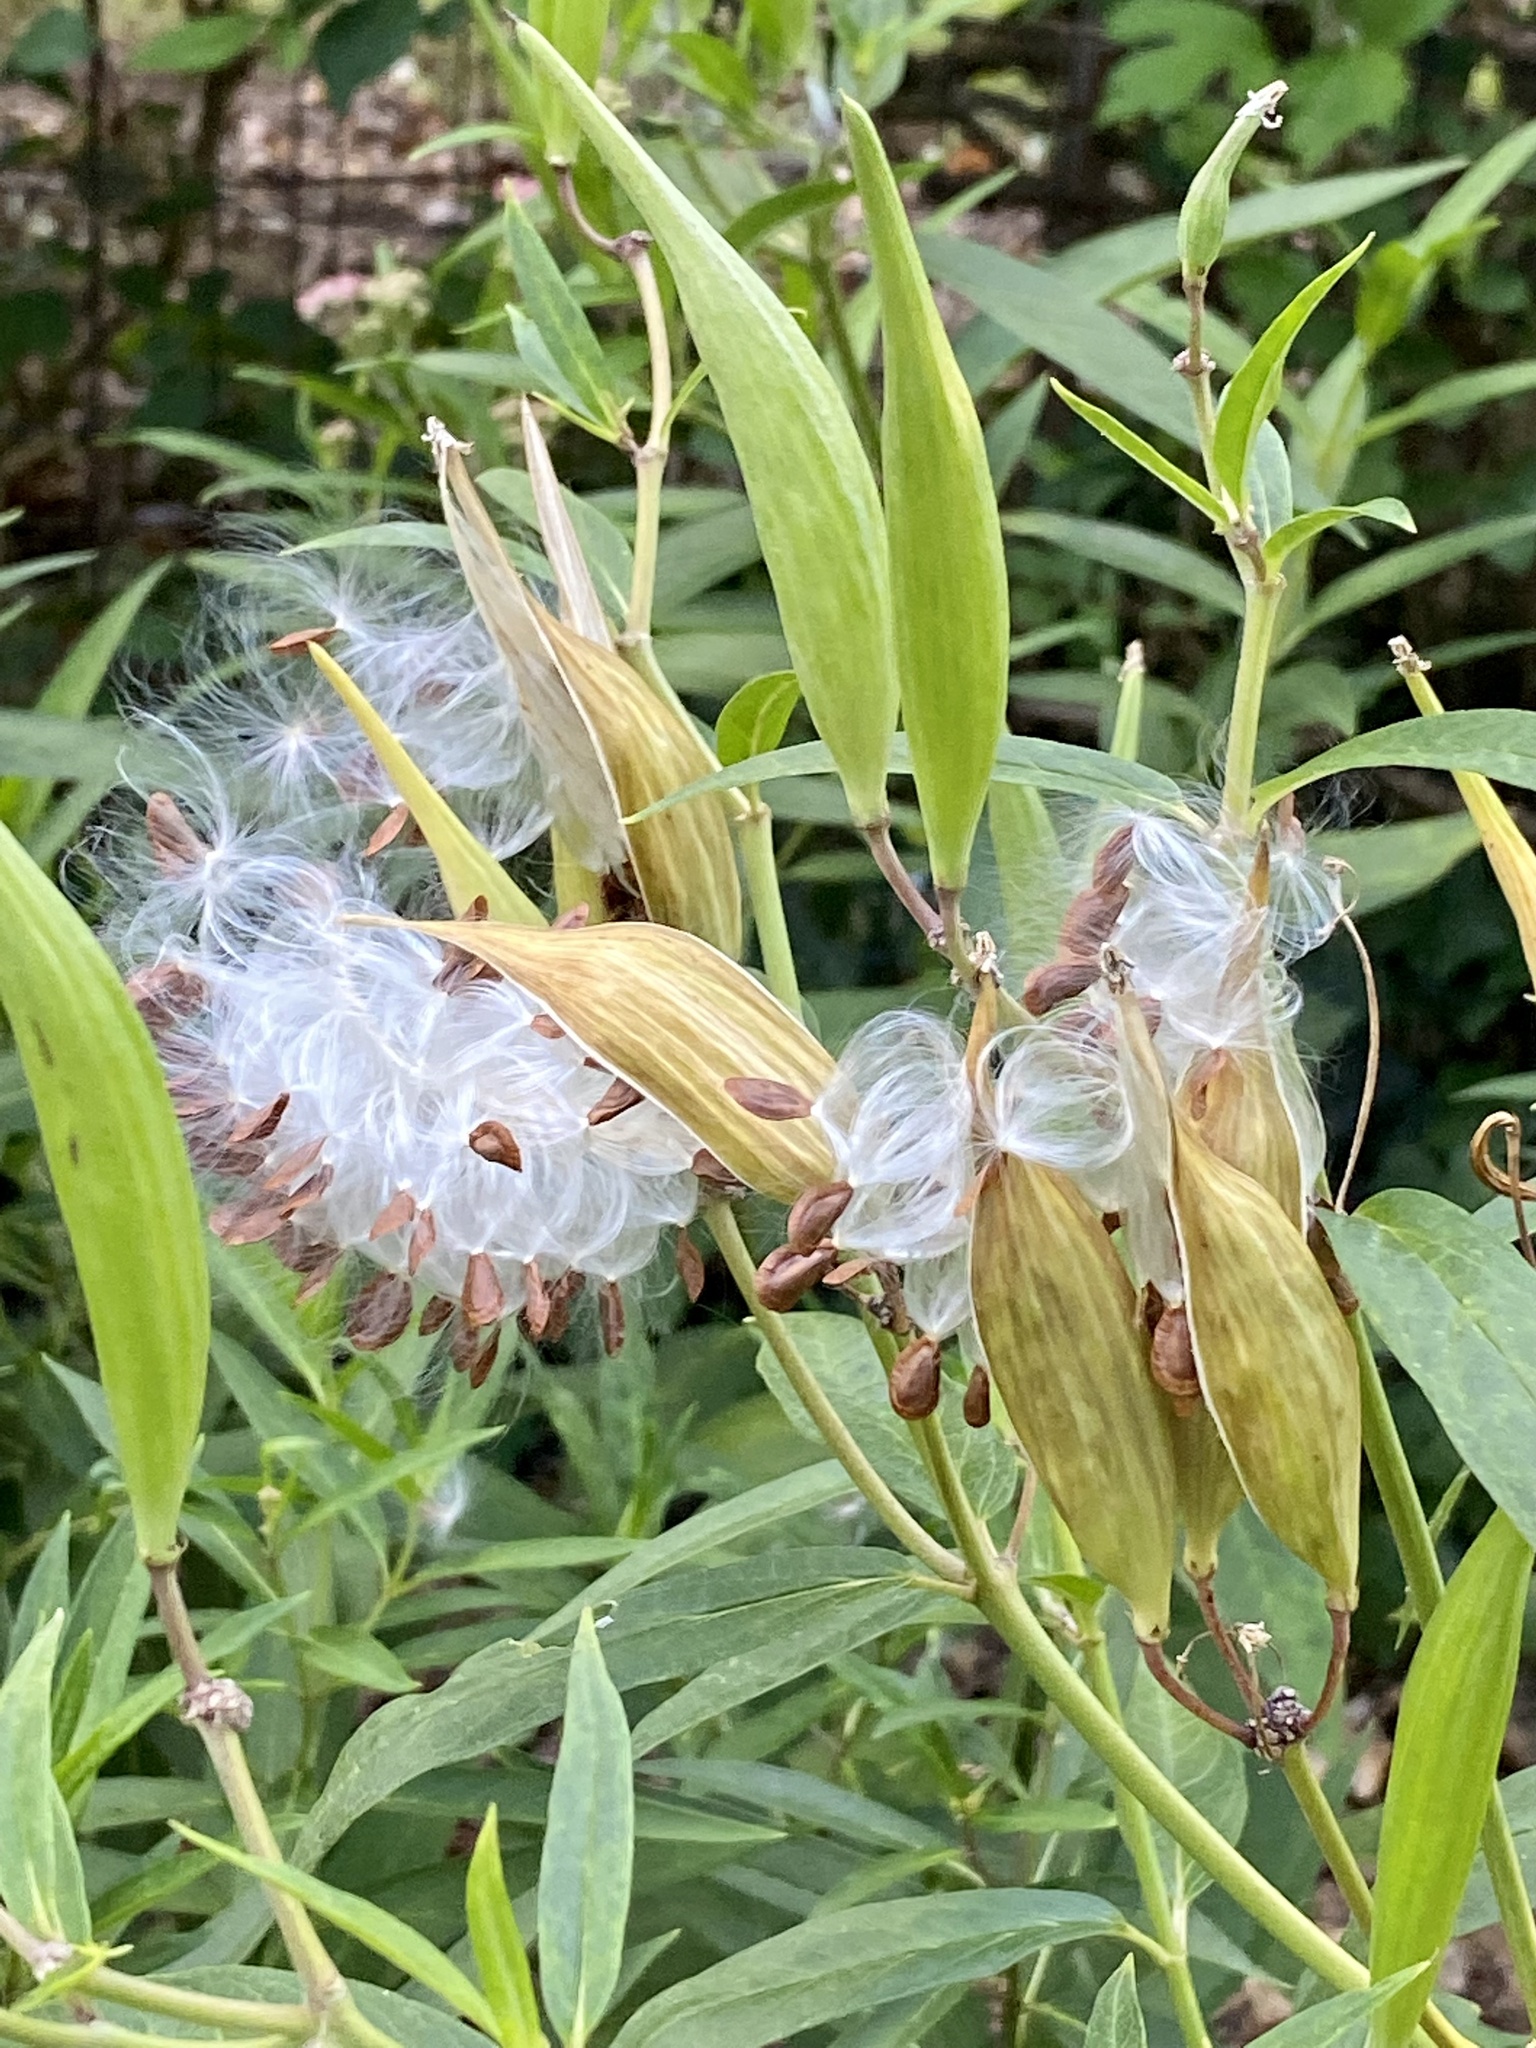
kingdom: Plantae
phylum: Tracheophyta
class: Magnoliopsida
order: Gentianales
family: Apocynaceae
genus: Asclepias
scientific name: Asclepias incarnata
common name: Swamp milkweed
